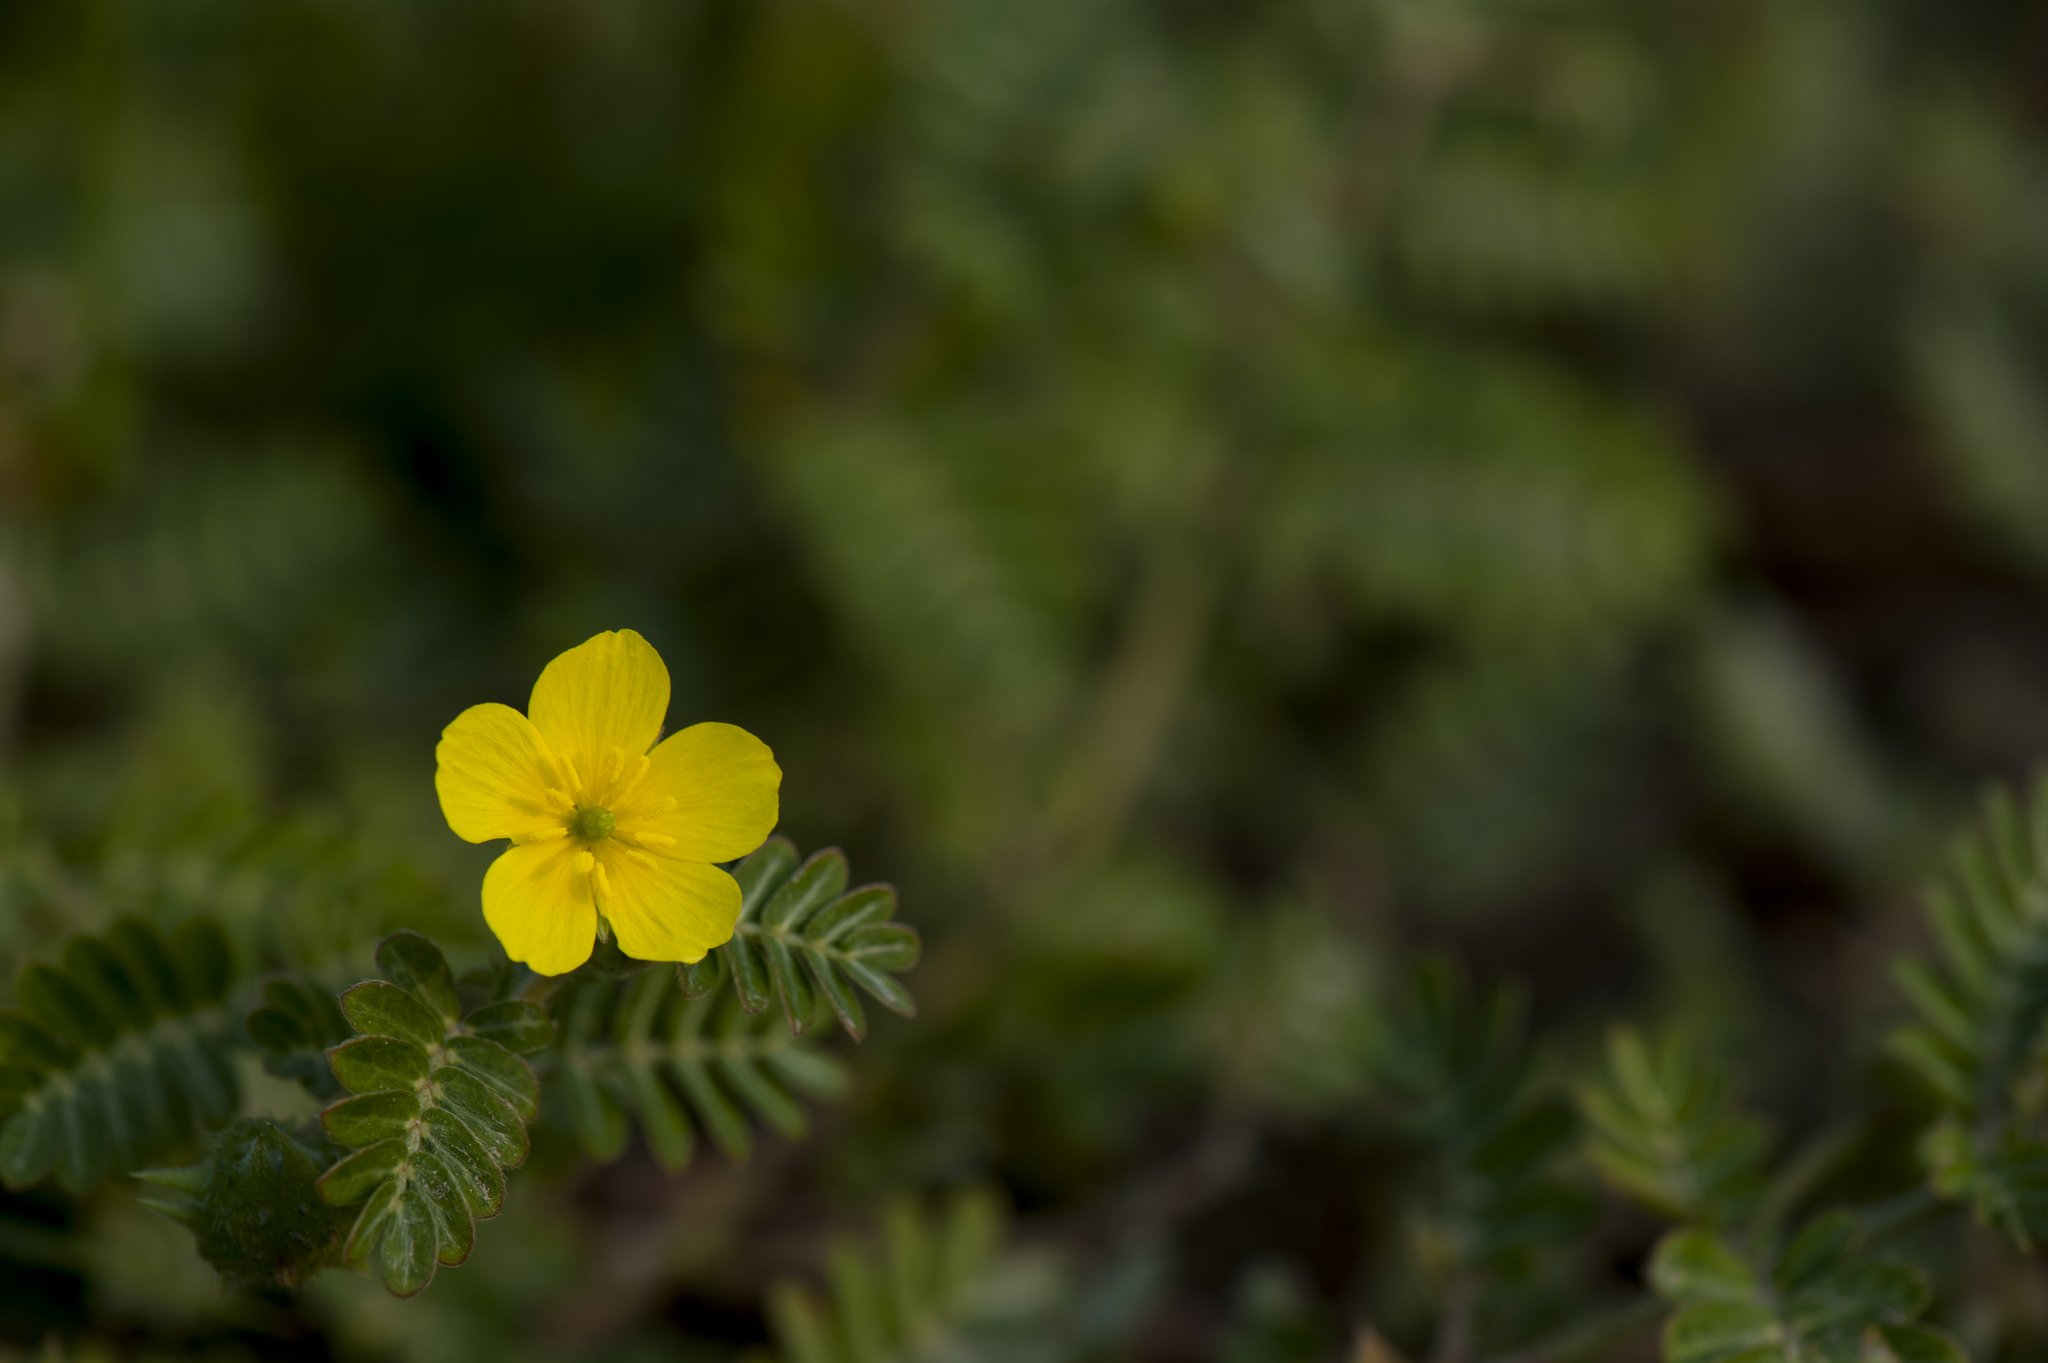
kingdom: Plantae
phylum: Tracheophyta
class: Magnoliopsida
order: Zygophyllales
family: Zygophyllaceae
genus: Tribulus
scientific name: Tribulus cistoides
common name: Jamaican feverplant
